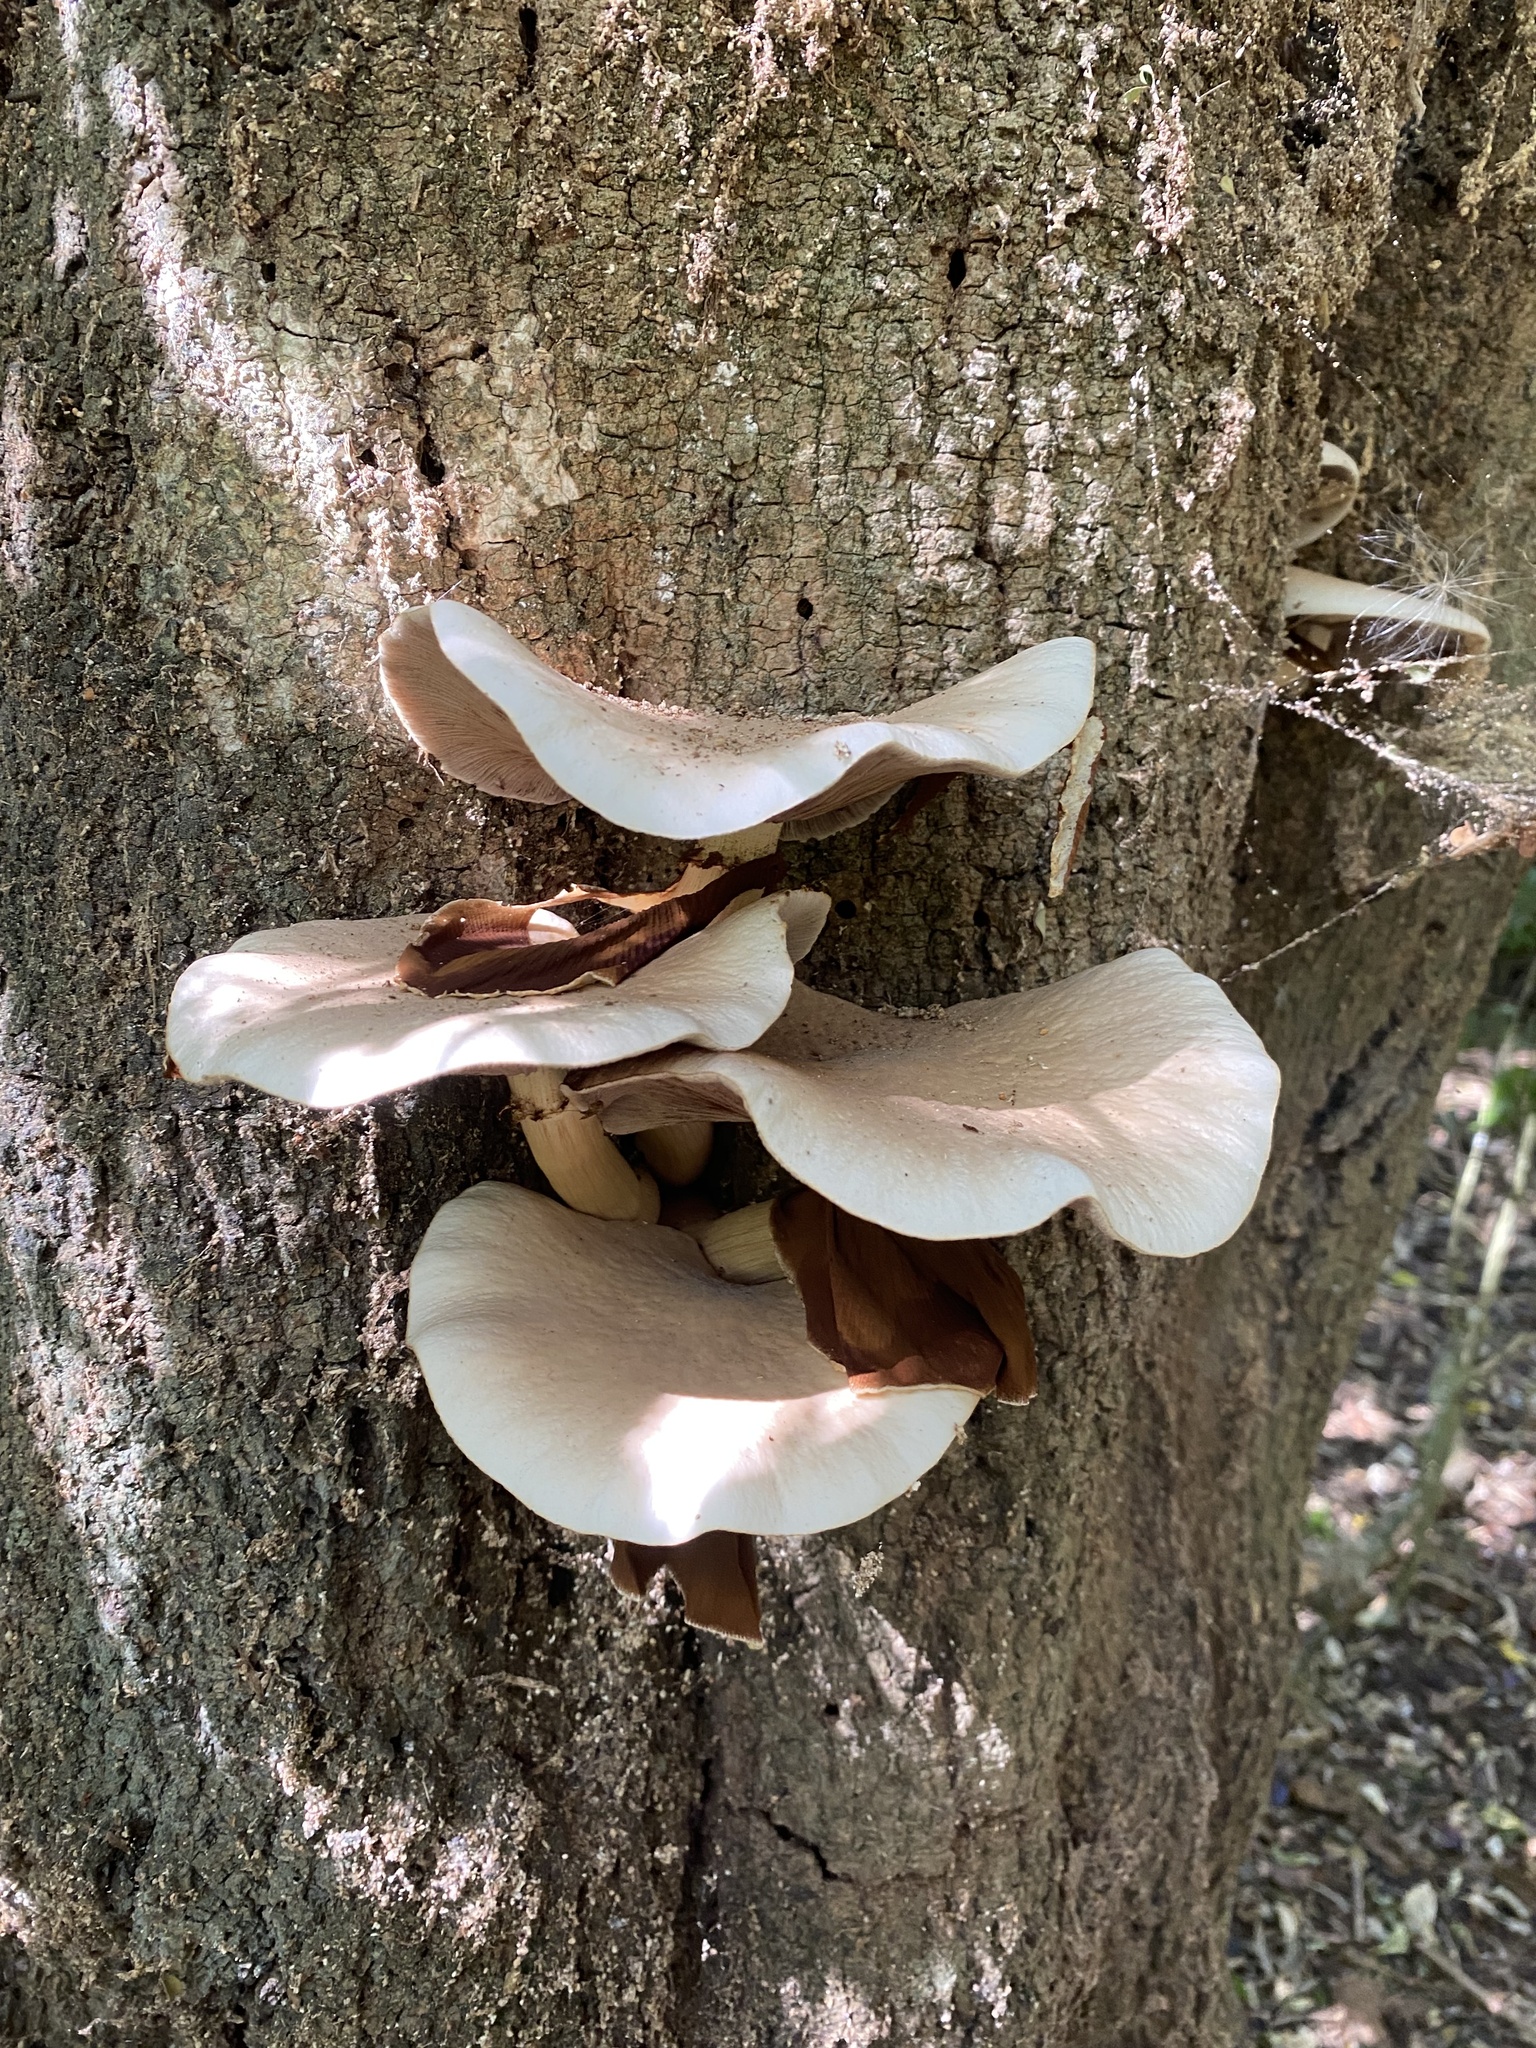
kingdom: Fungi
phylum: Basidiomycota
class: Agaricomycetes
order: Agaricales
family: Tubariaceae
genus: Cyclocybe
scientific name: Cyclocybe parasitica
